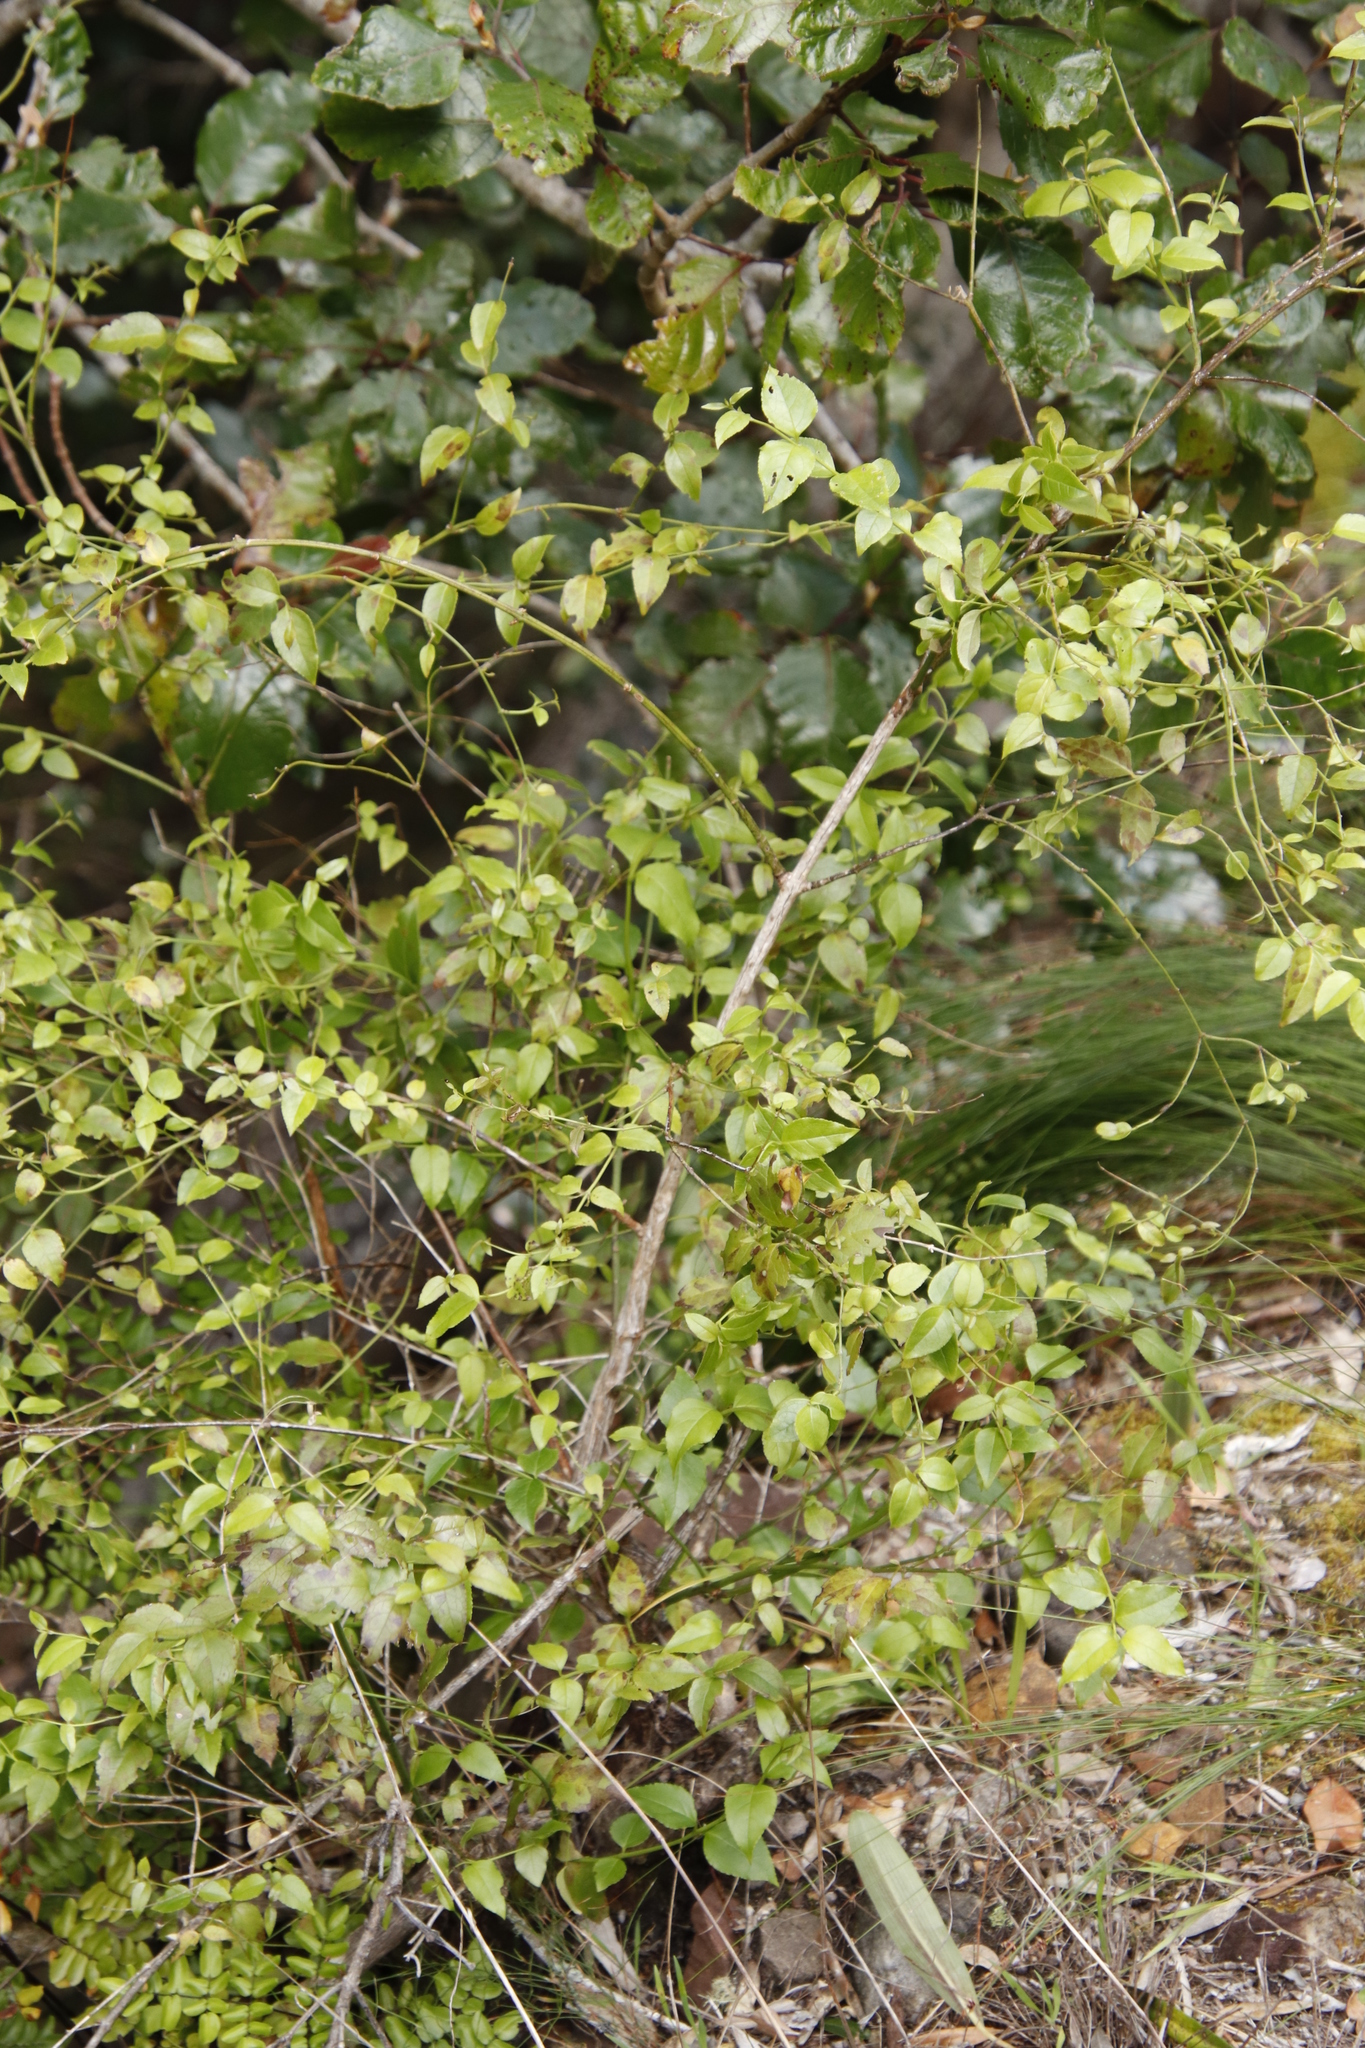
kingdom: Plantae
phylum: Tracheophyta
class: Magnoliopsida
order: Lamiales
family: Stilbaceae
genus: Halleria
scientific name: Halleria lucida
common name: Tree fuschia
